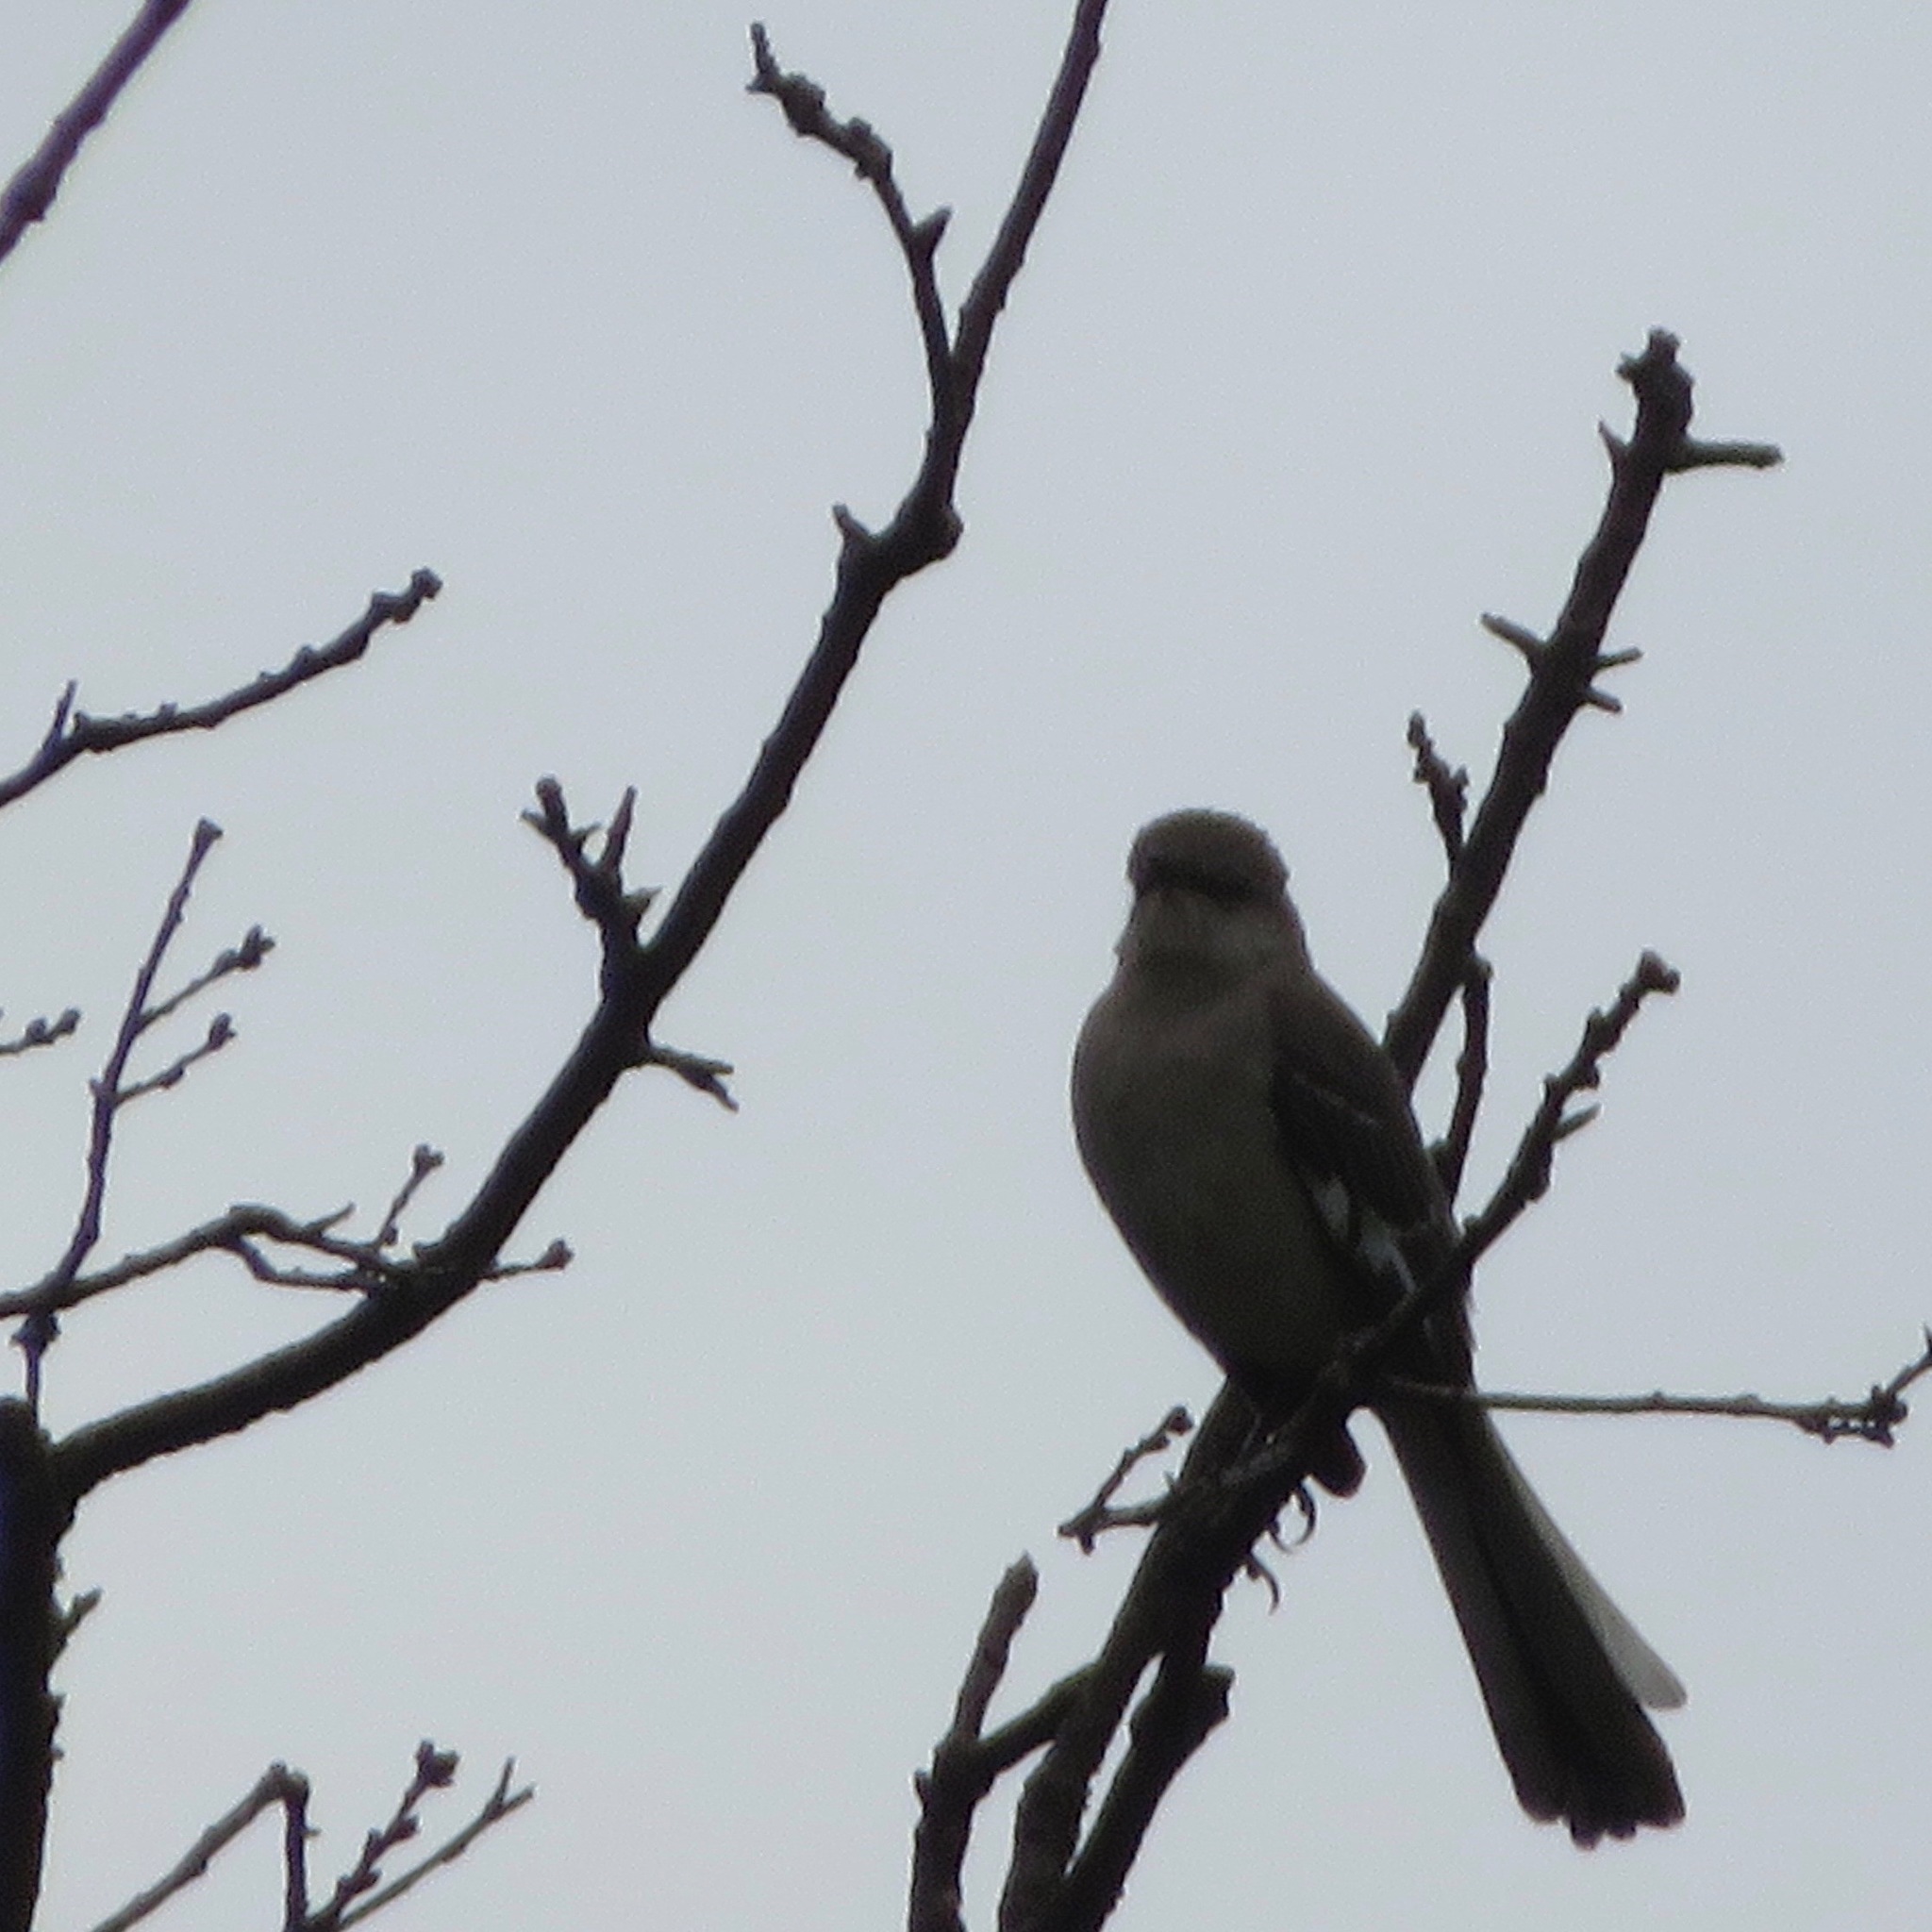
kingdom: Animalia
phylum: Chordata
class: Aves
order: Passeriformes
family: Mimidae
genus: Mimus
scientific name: Mimus polyglottos
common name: Northern mockingbird
